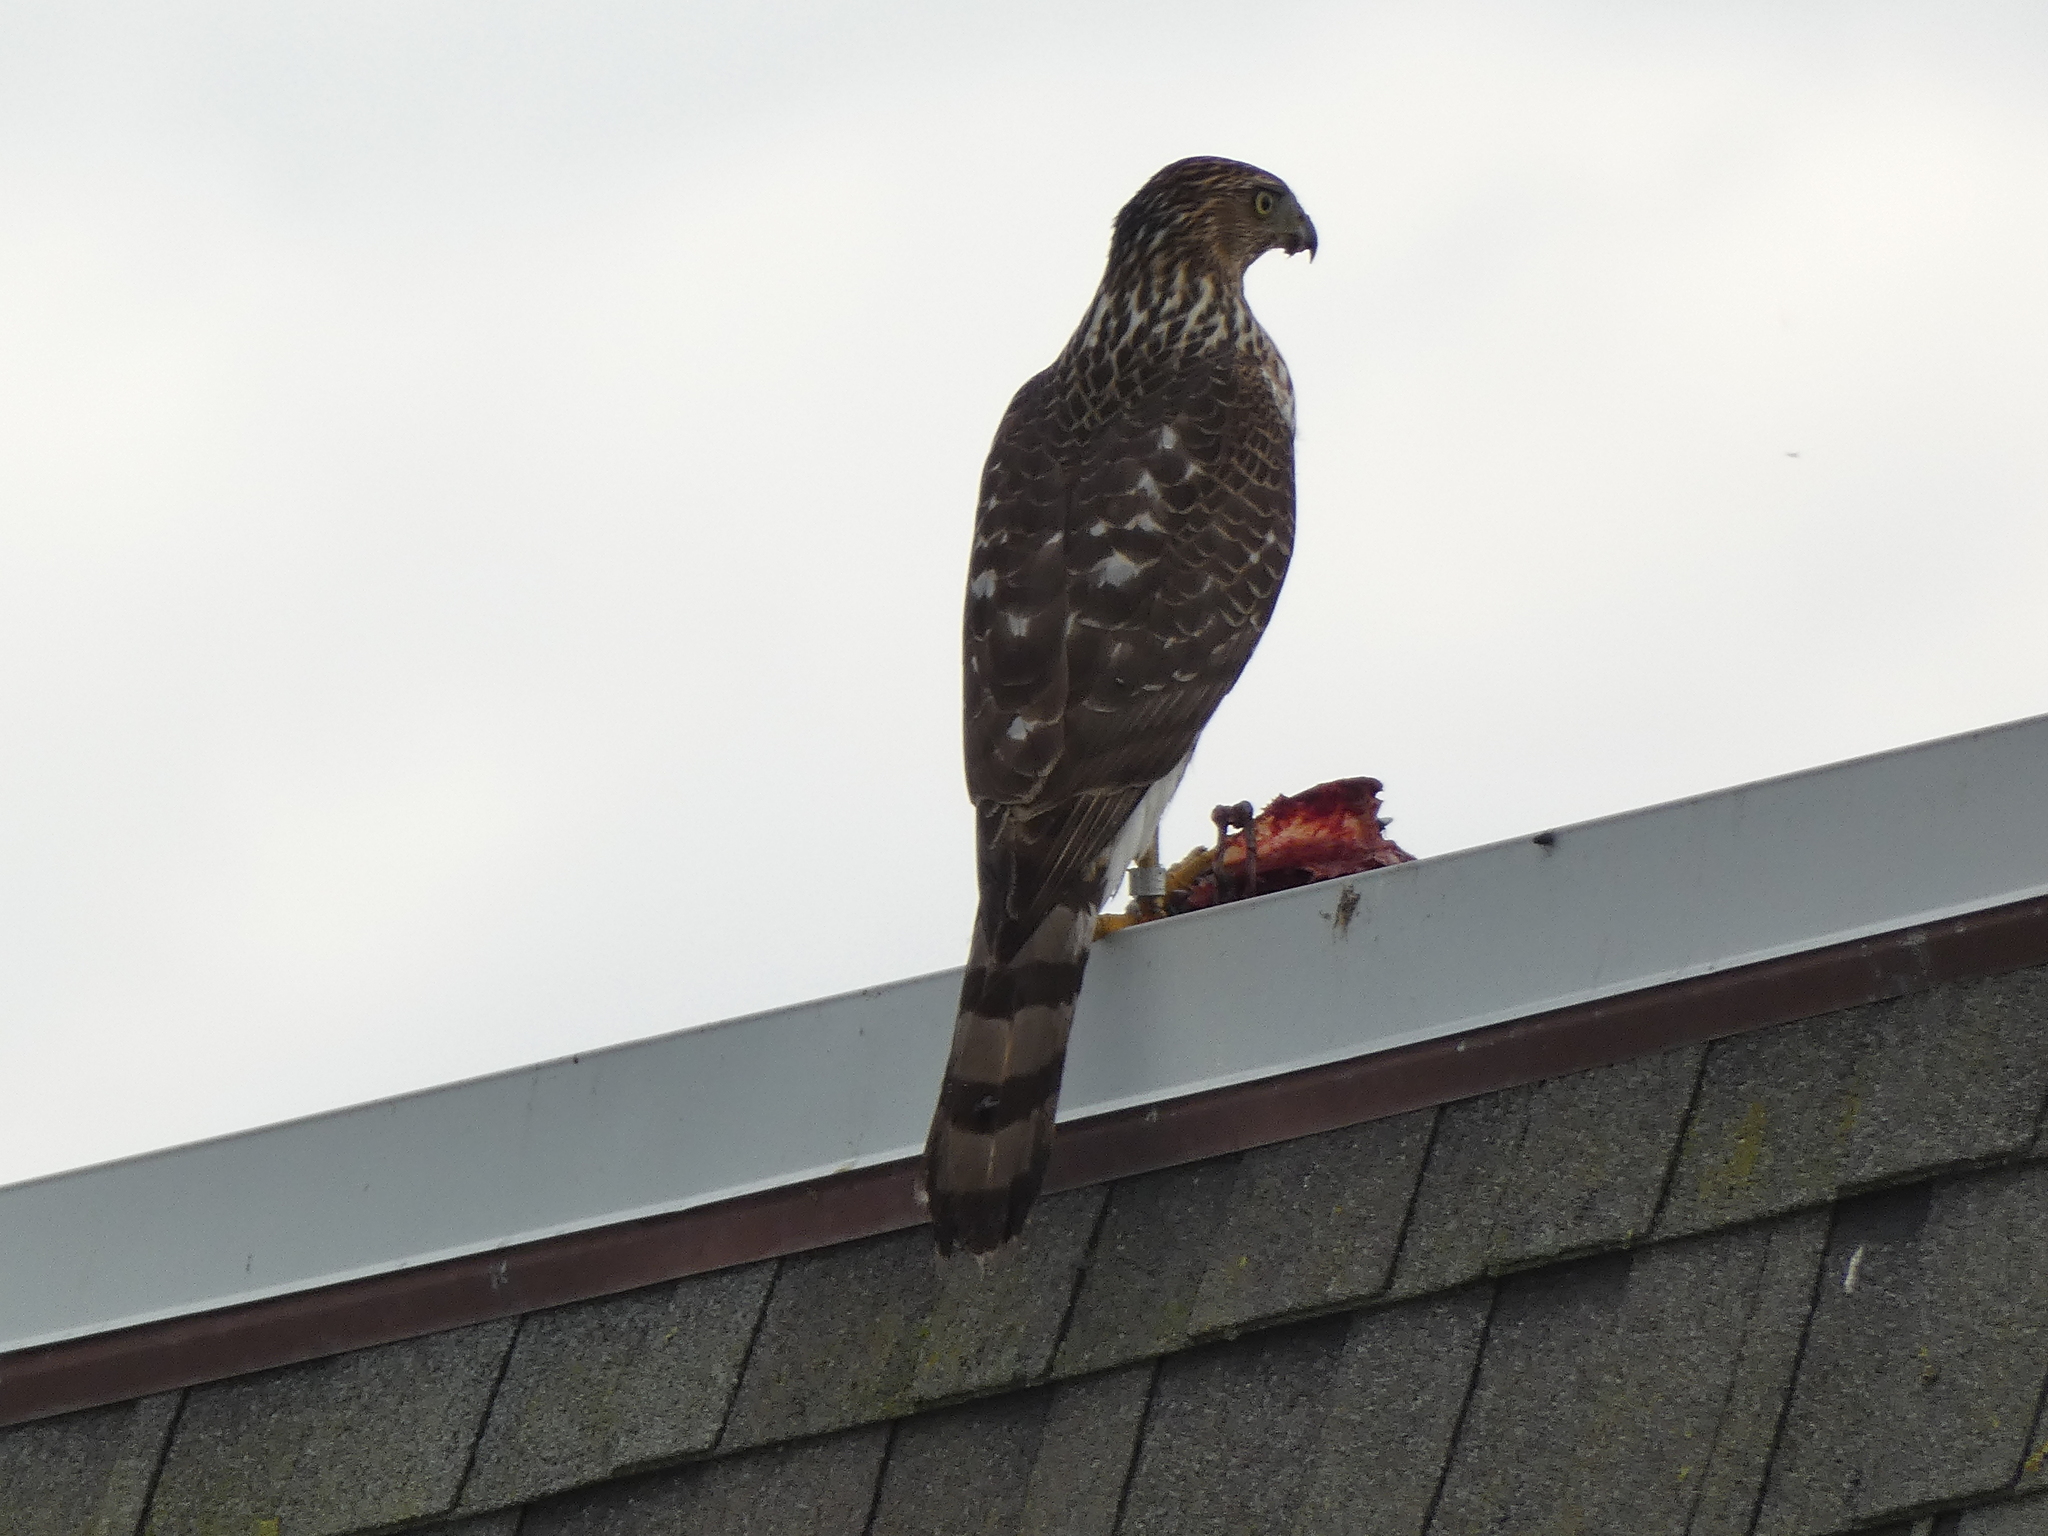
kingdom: Animalia
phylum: Chordata
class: Aves
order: Accipitriformes
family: Accipitridae
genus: Accipiter
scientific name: Accipiter cooperii
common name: Cooper's hawk
